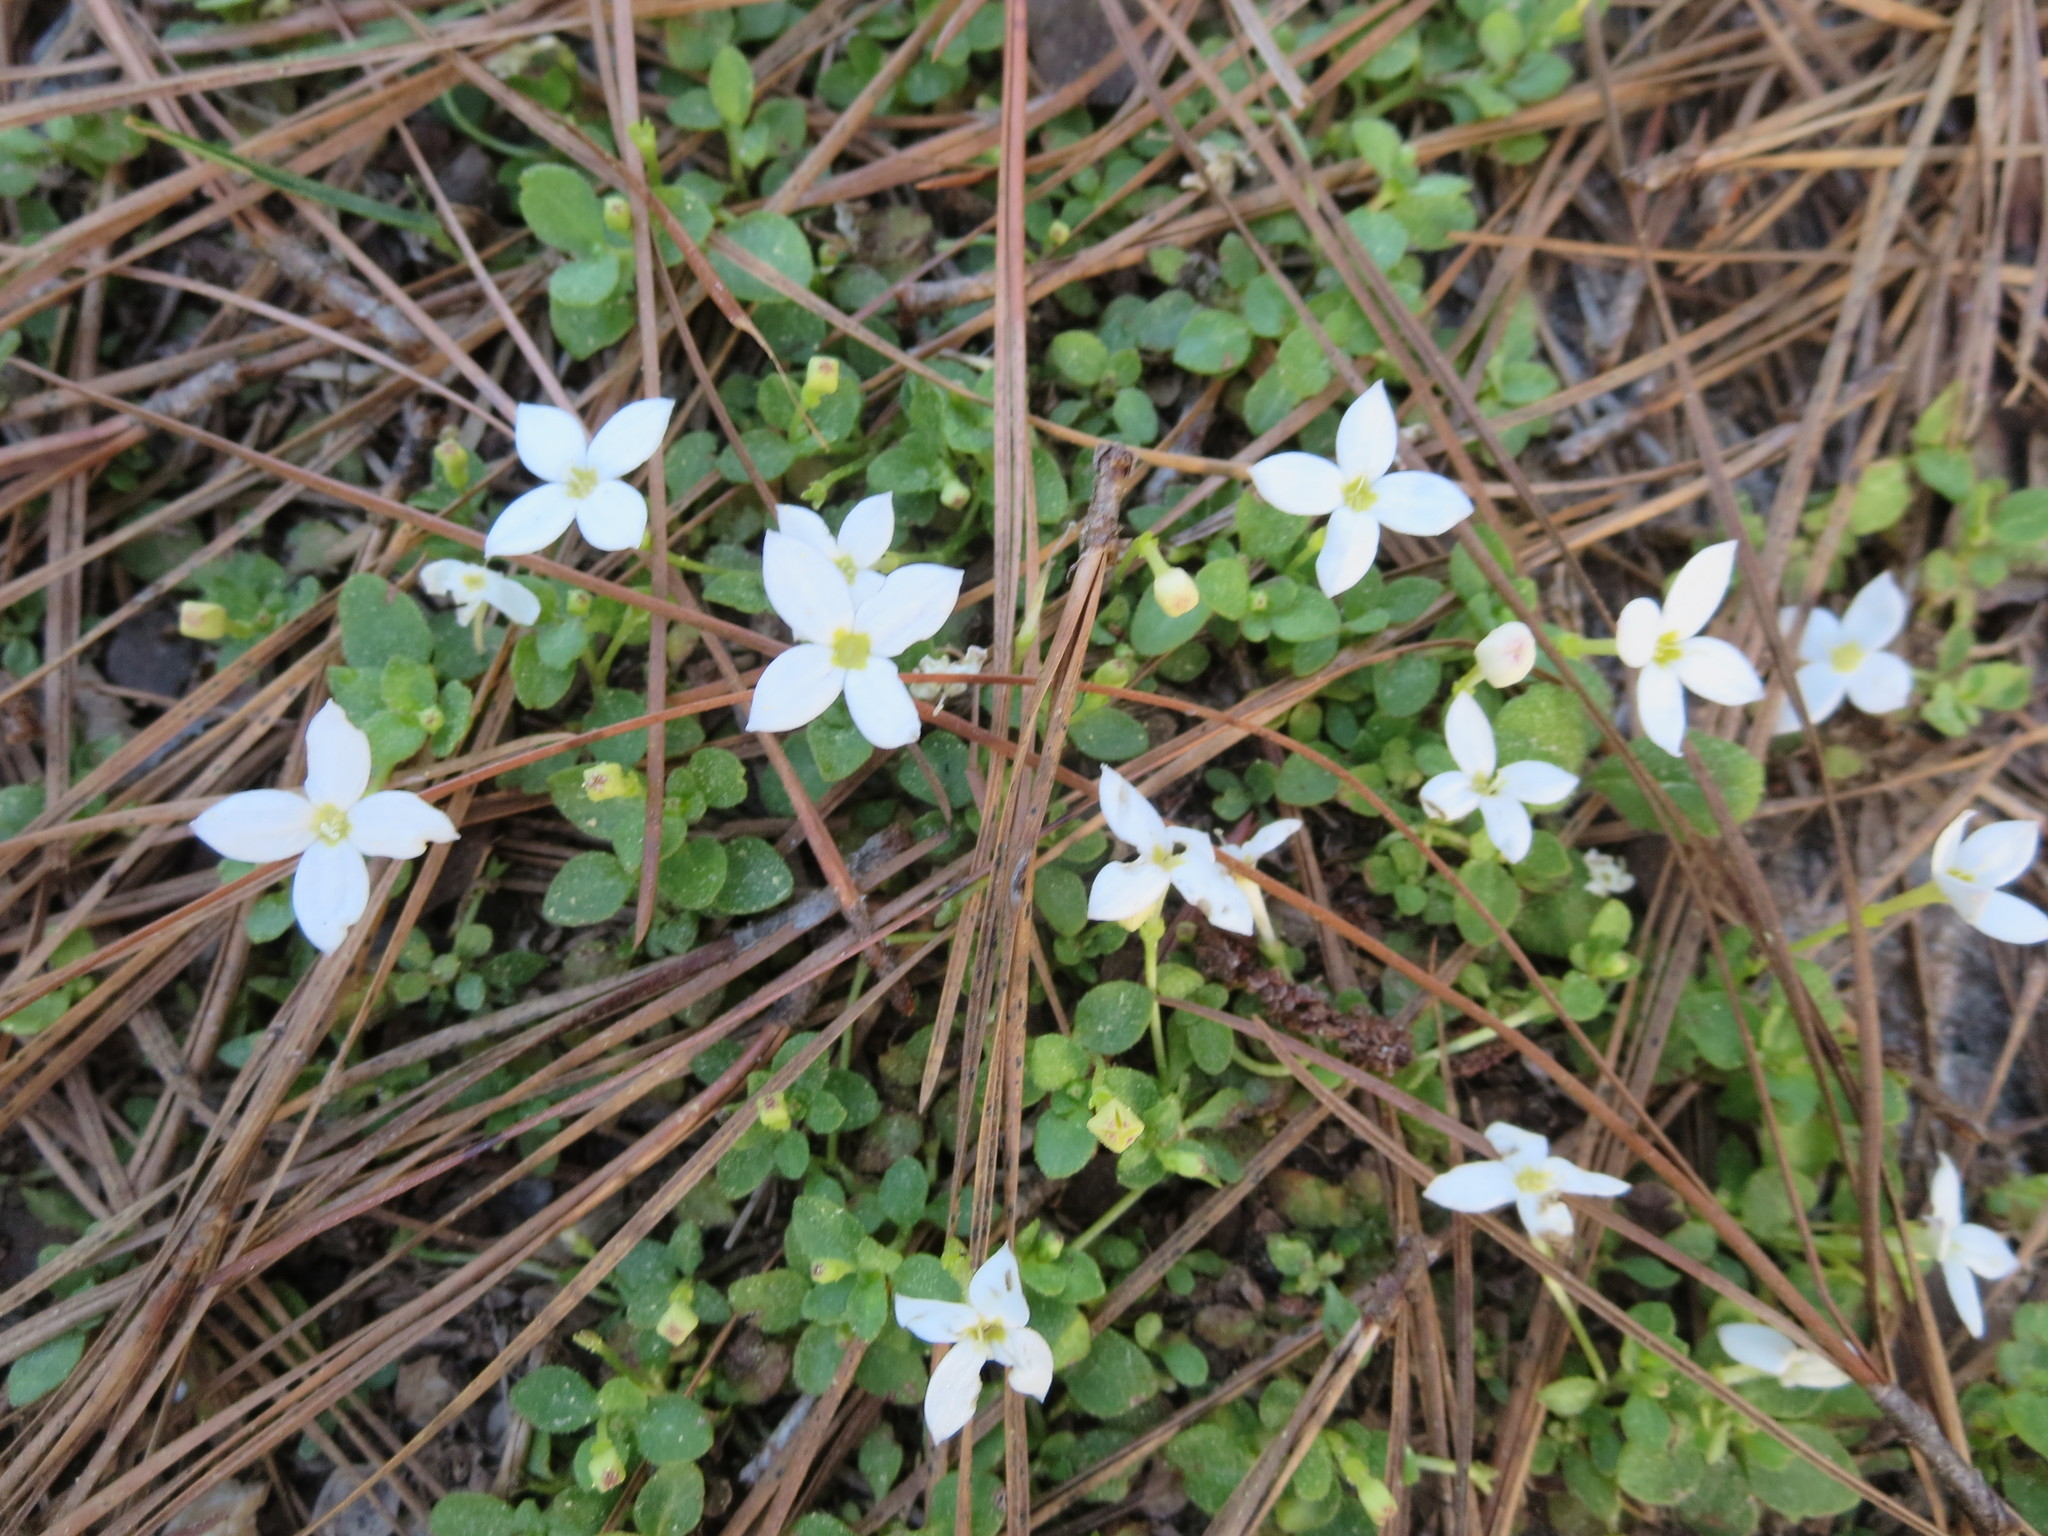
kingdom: Plantae
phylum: Tracheophyta
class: Magnoliopsida
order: Gentianales
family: Rubiaceae
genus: Houstonia
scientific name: Houstonia procumbens
